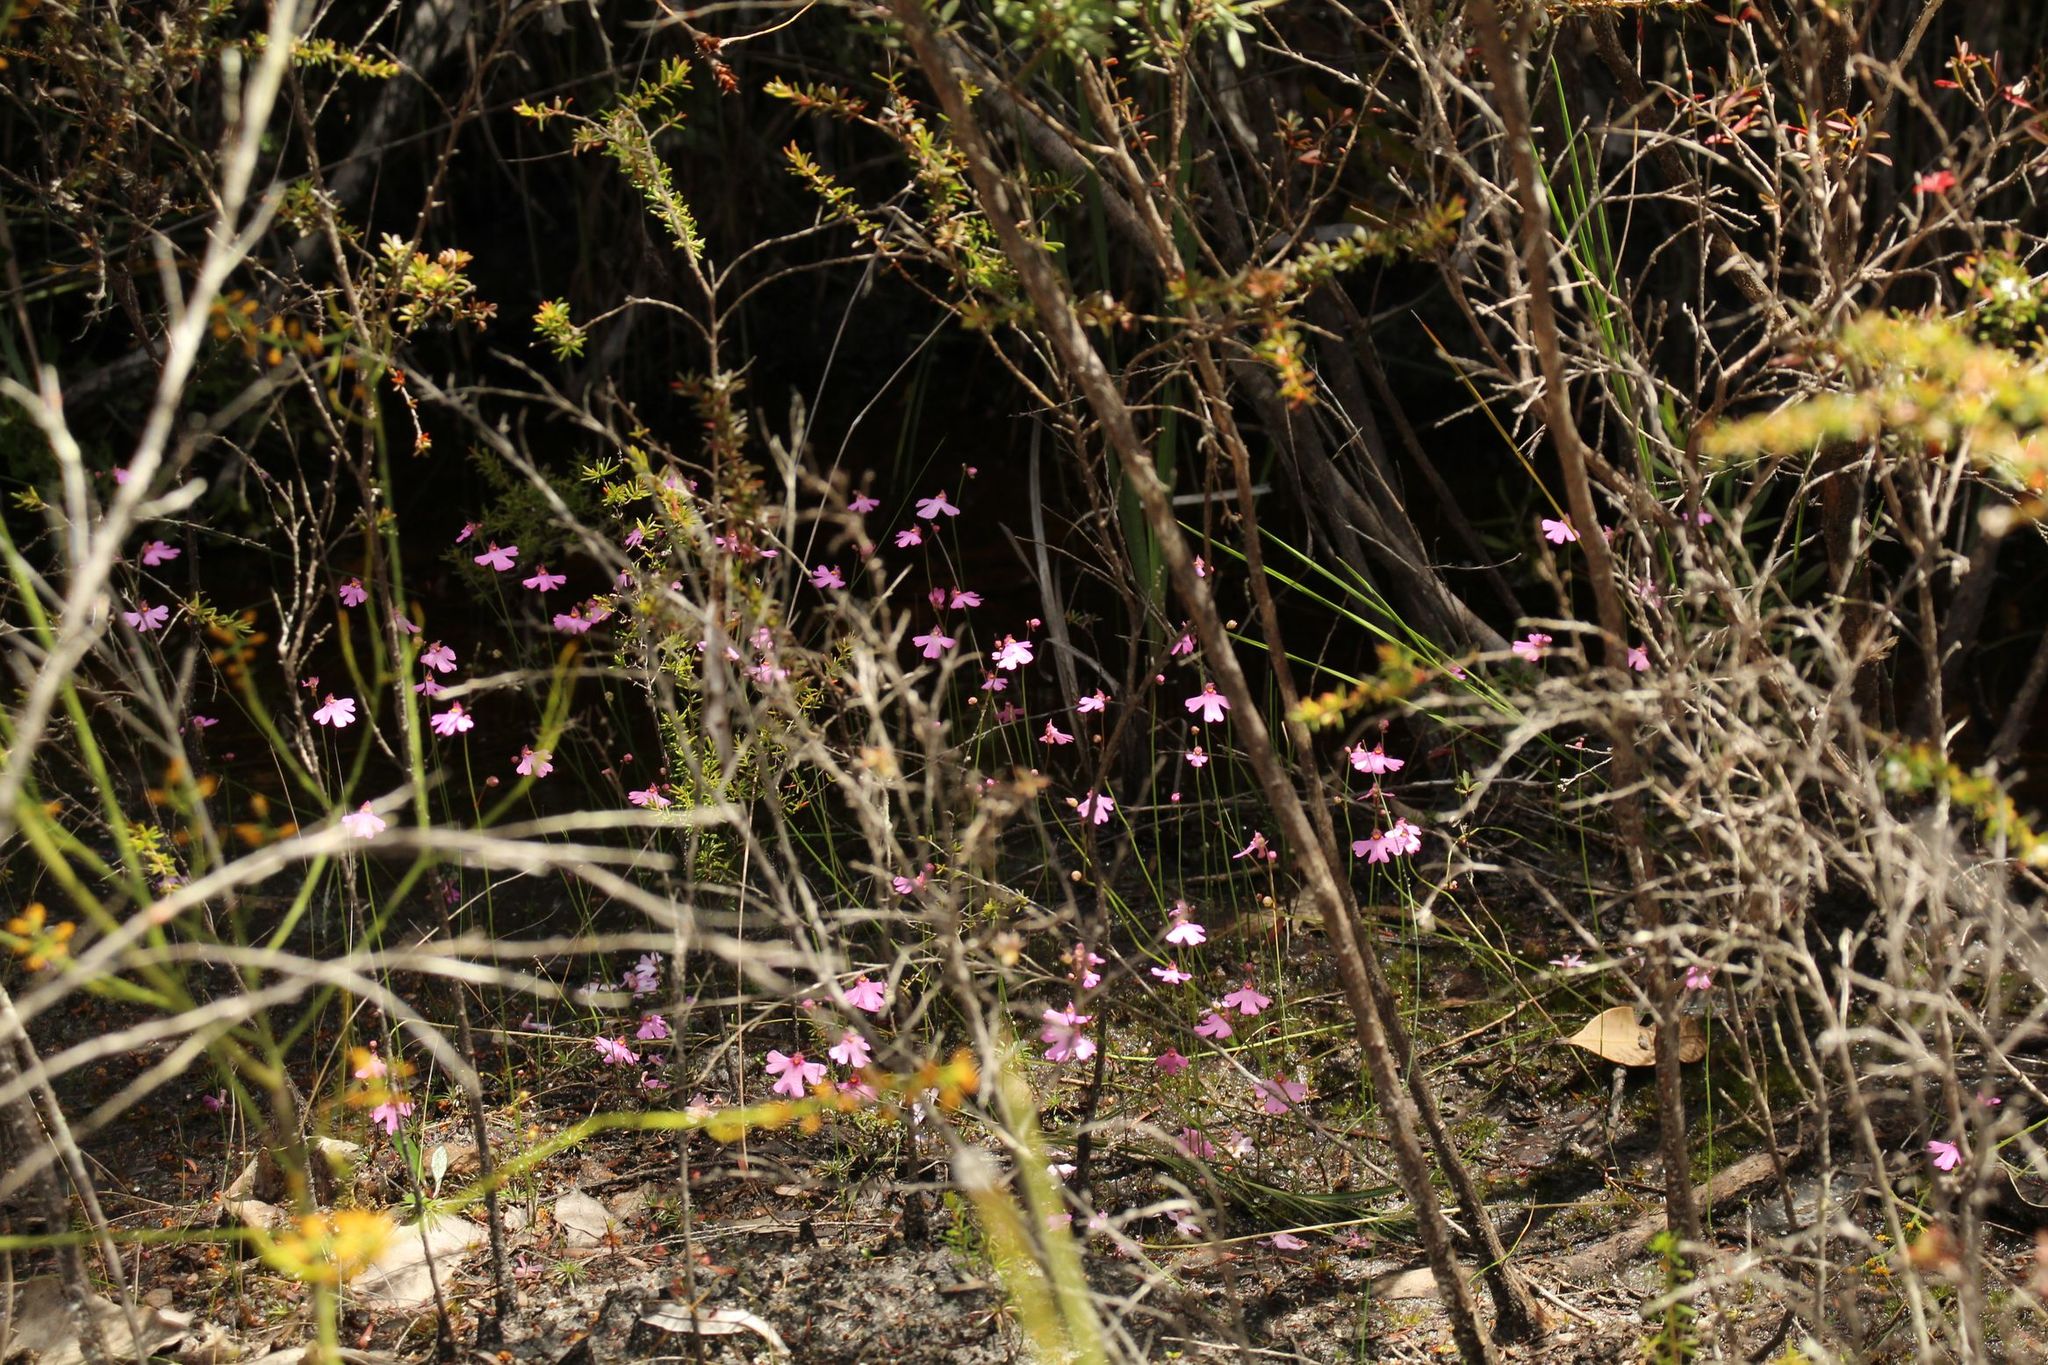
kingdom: Plantae
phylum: Tracheophyta
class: Magnoliopsida
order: Lamiales
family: Lentibulariaceae
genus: Utricularia
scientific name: Utricularia multifida
